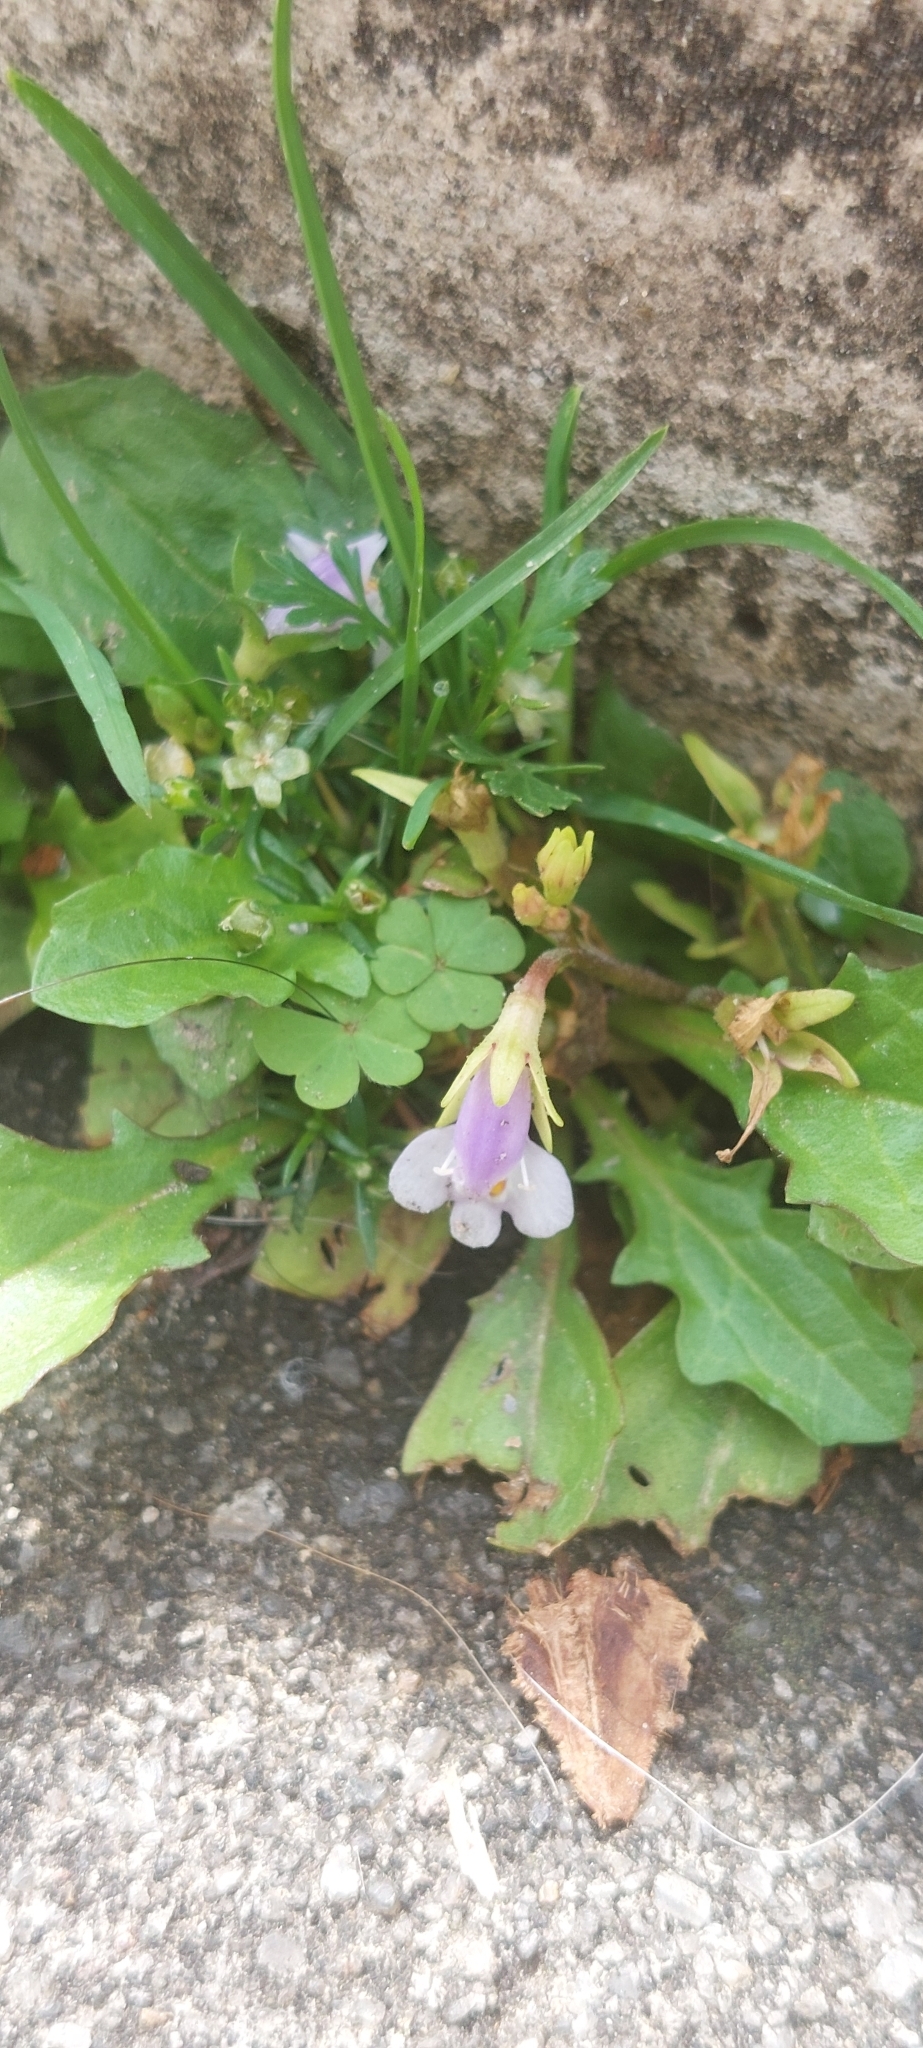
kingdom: Plantae
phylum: Tracheophyta
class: Magnoliopsida
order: Lamiales
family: Mazaceae
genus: Mazus
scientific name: Mazus pumilus
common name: Japanese mazus
